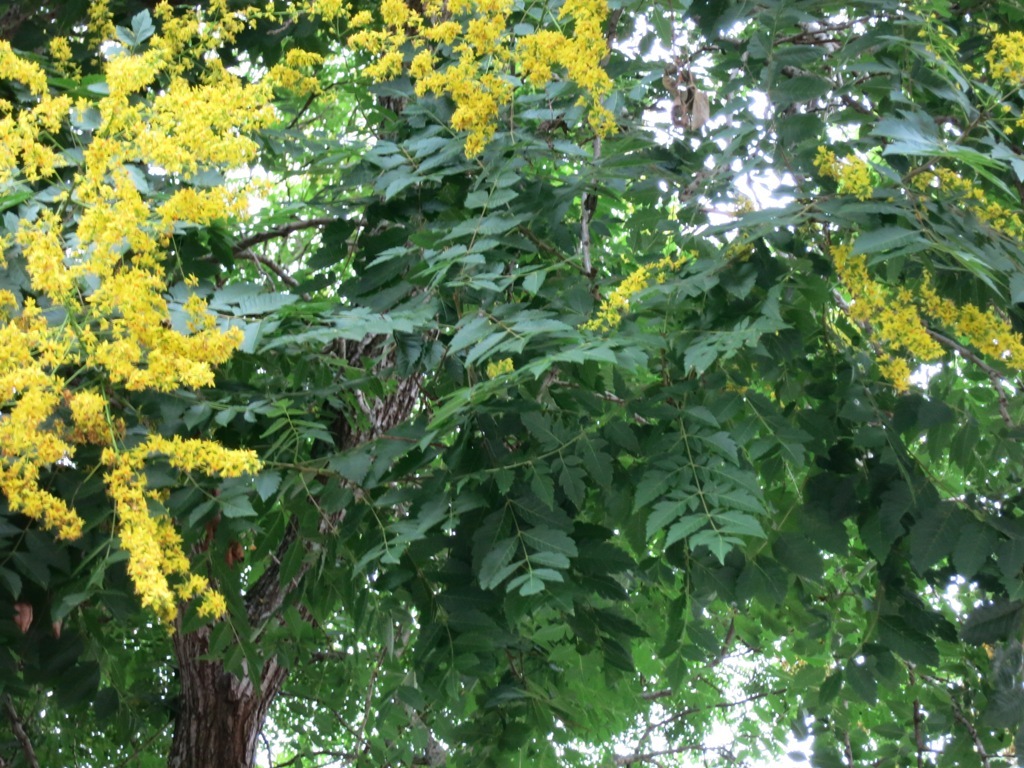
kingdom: Plantae
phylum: Tracheophyta
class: Magnoliopsida
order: Sapindales
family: Sapindaceae
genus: Koelreuteria
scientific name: Koelreuteria paniculata
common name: Pride-of-india
